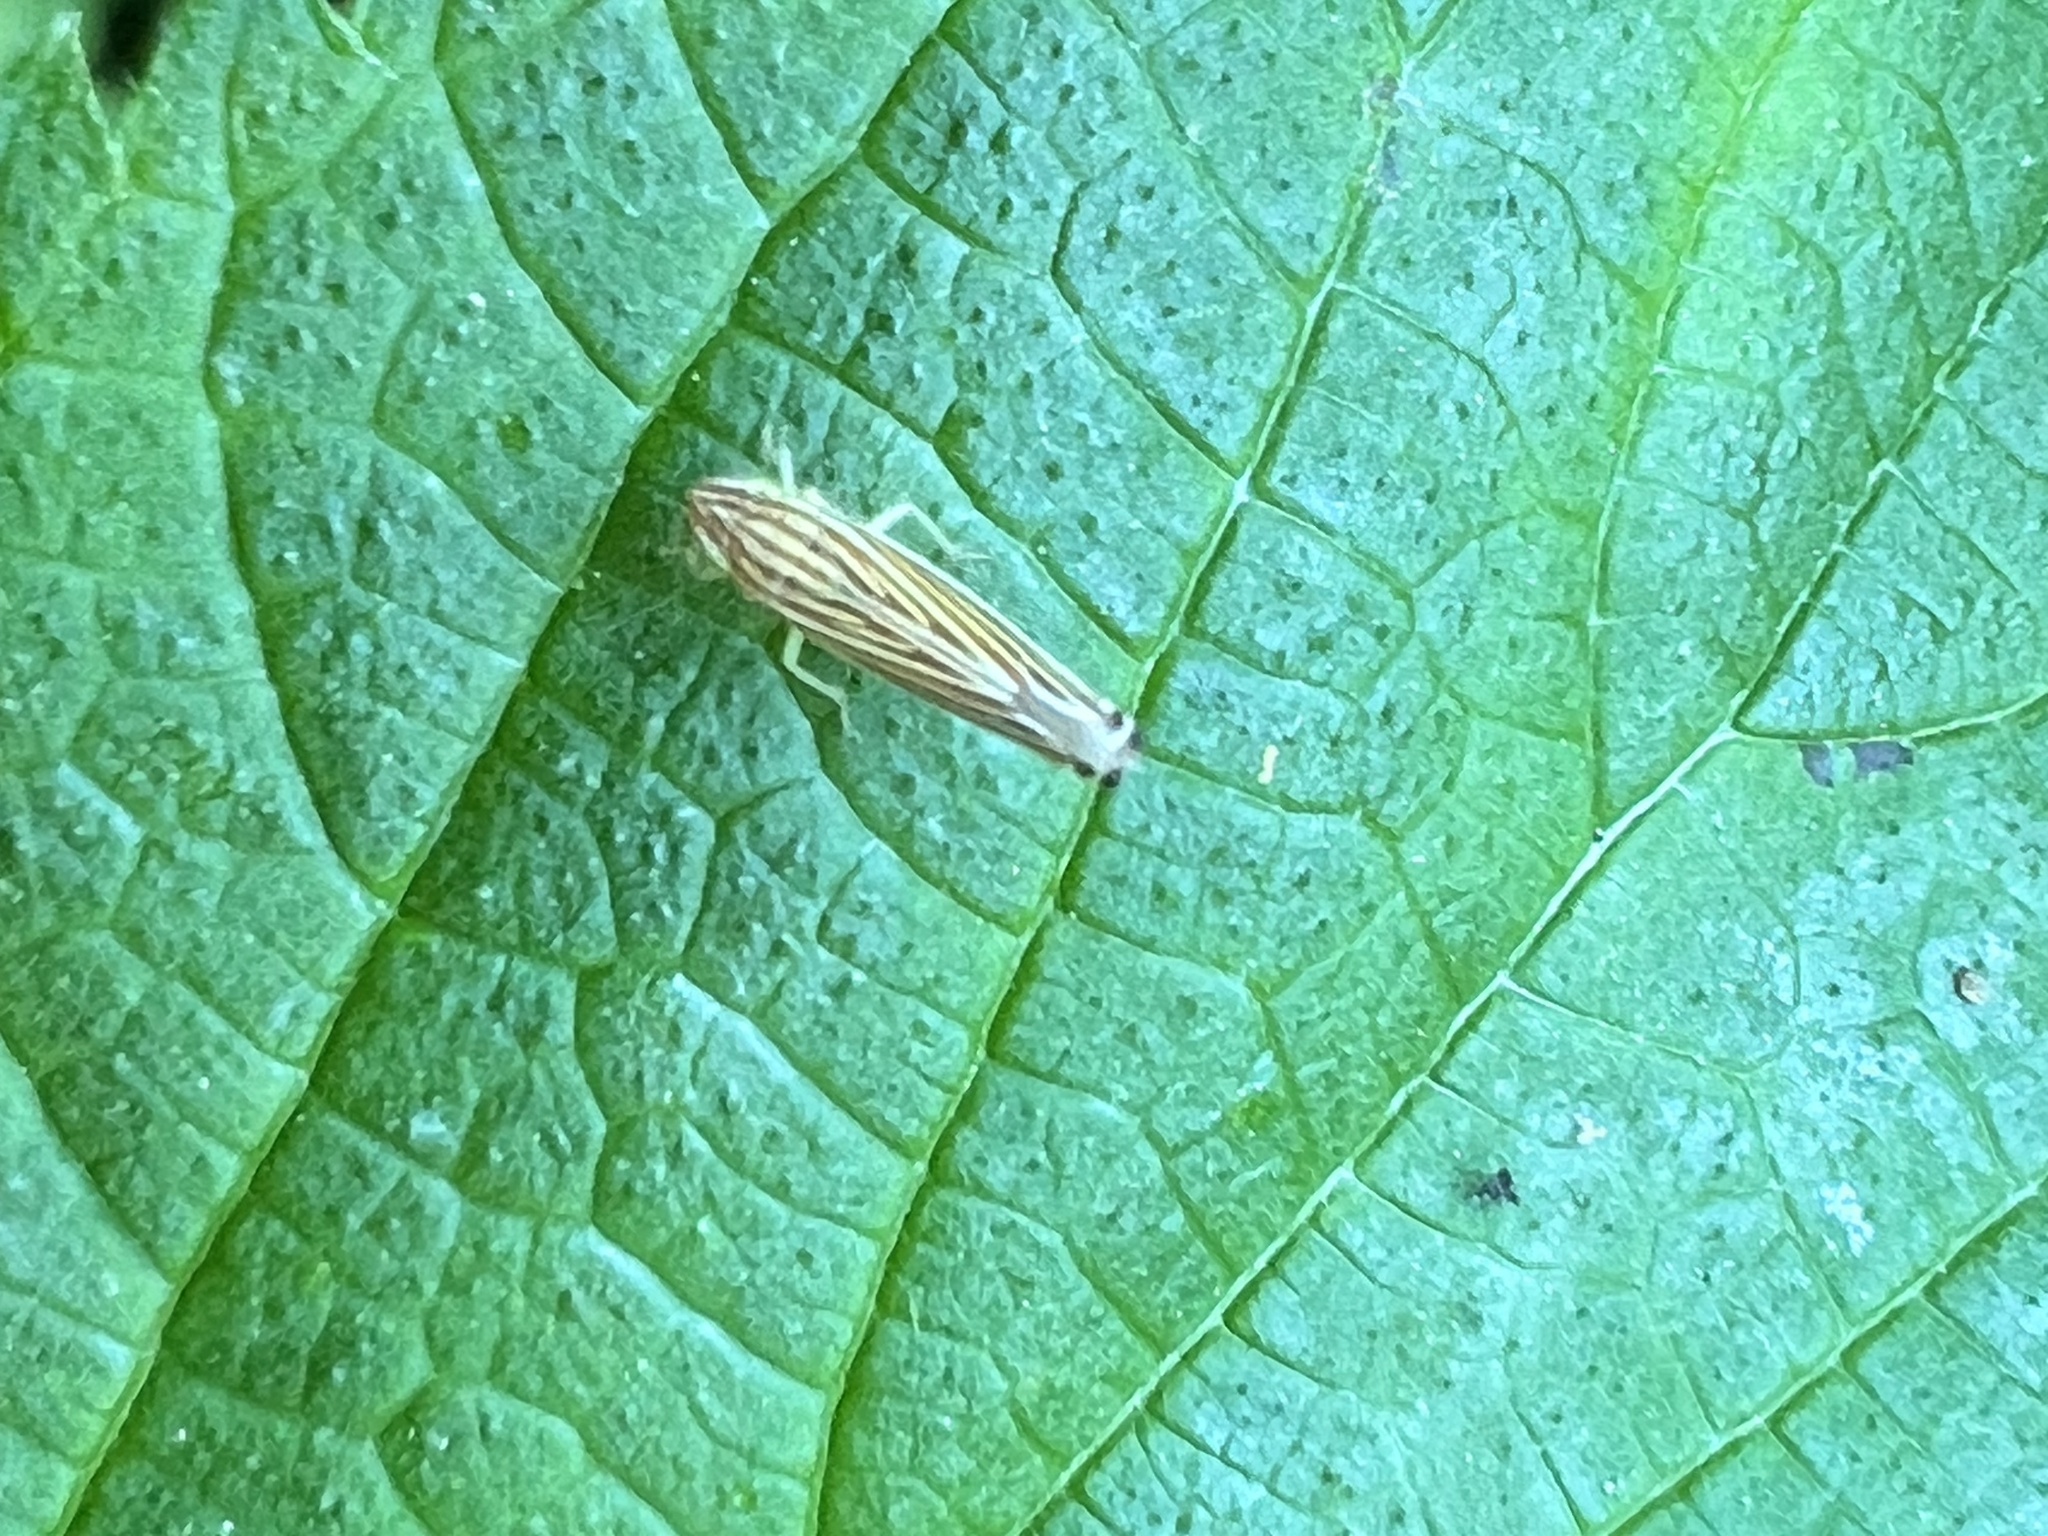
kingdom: Animalia
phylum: Arthropoda
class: Insecta
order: Hemiptera
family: Cicadellidae
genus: Sibovia
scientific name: Sibovia occatoria
